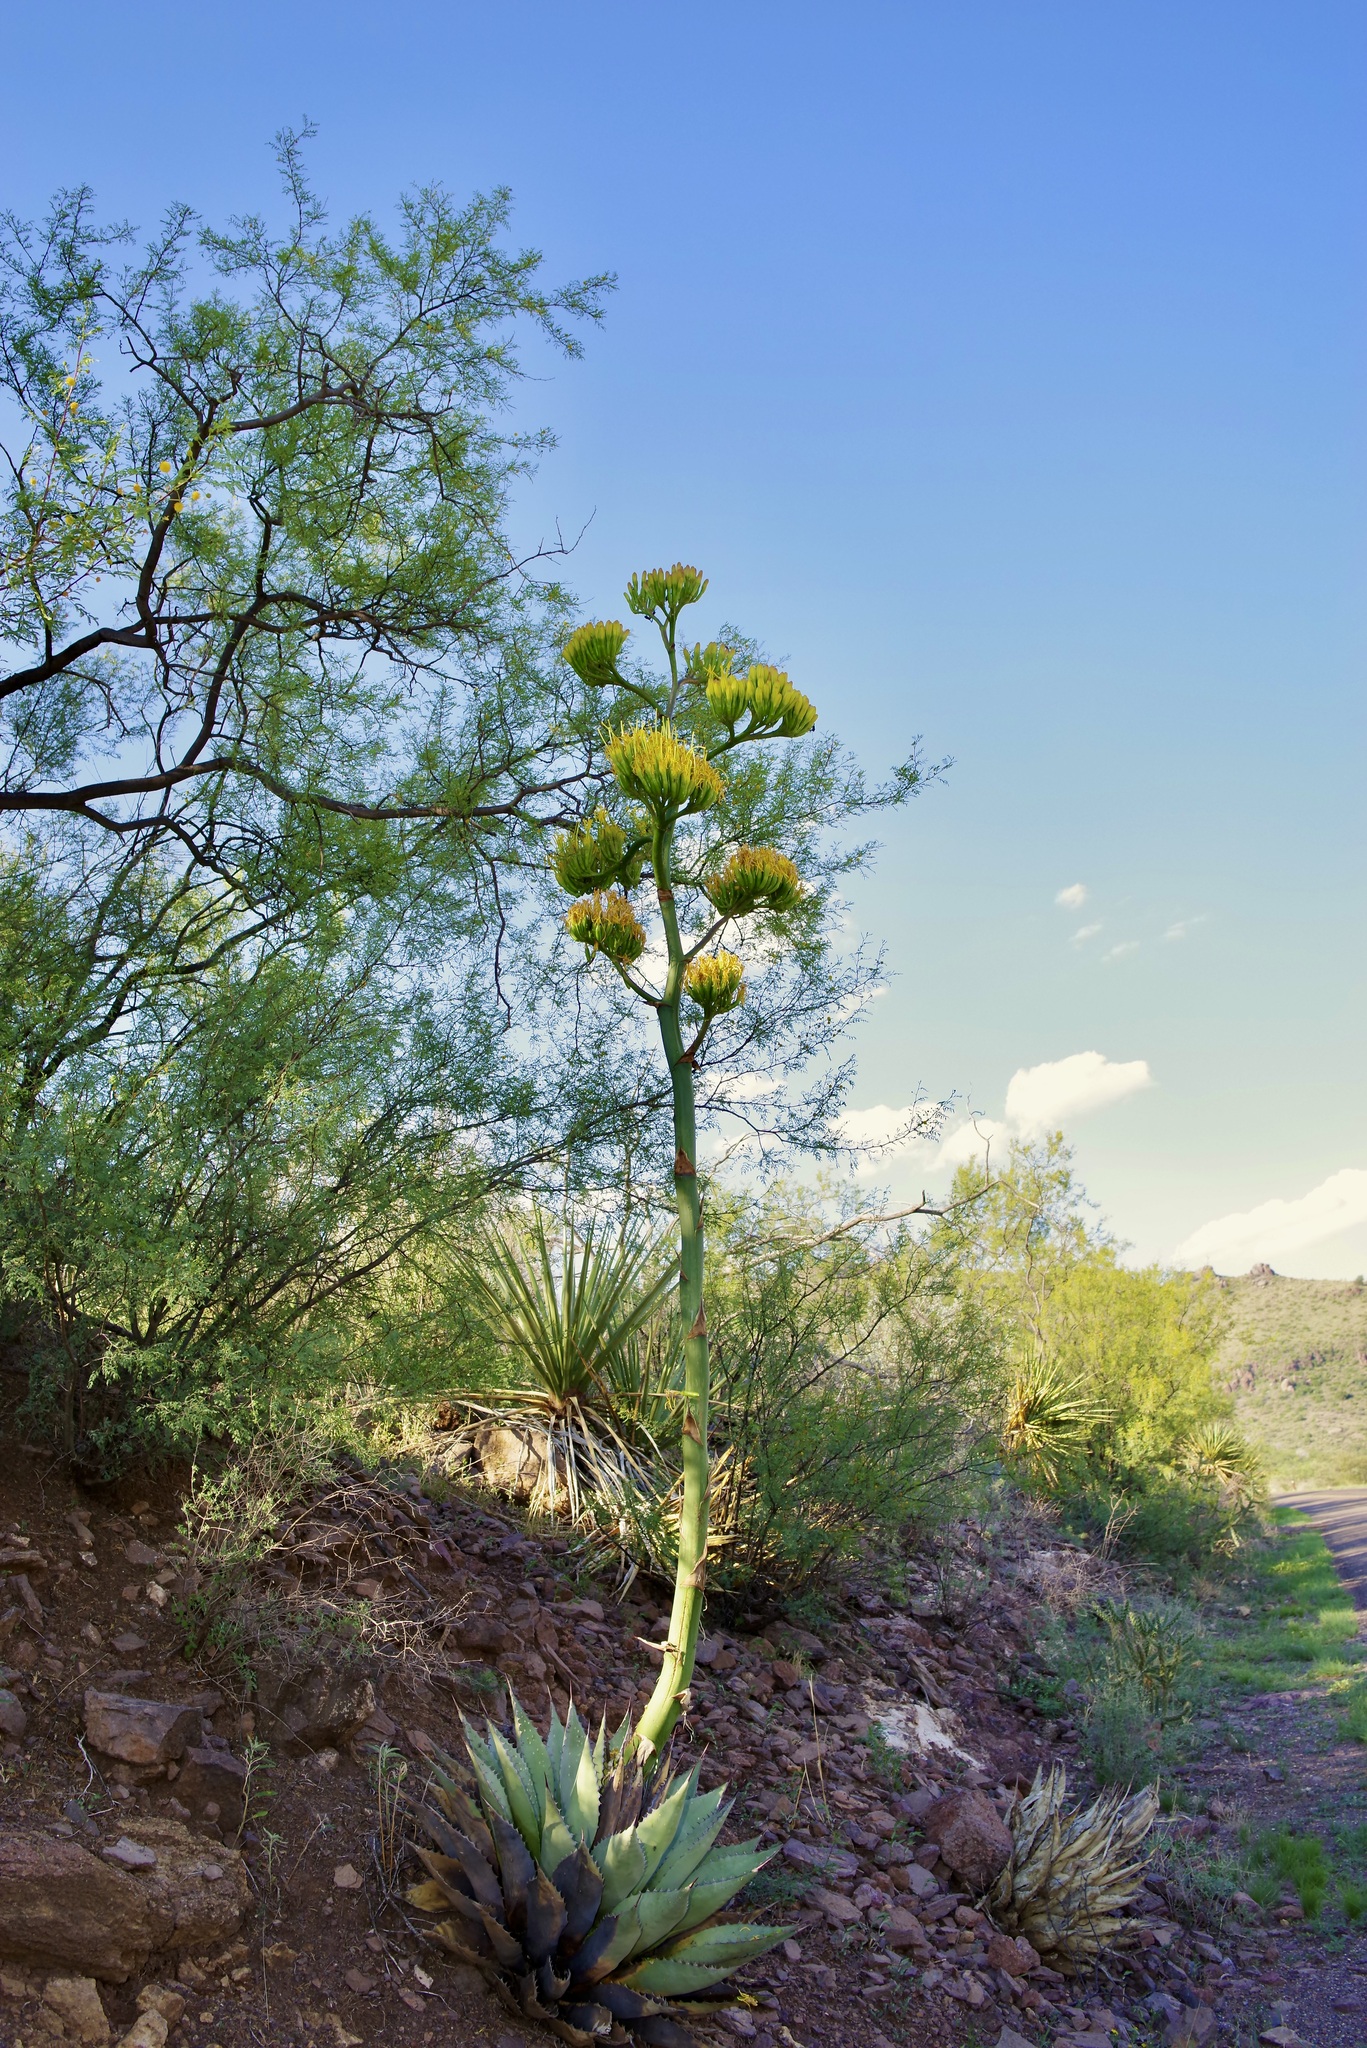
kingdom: Plantae
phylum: Tracheophyta
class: Liliopsida
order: Asparagales
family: Asparagaceae
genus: Agave
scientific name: Agave havardiana
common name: Havard agave
